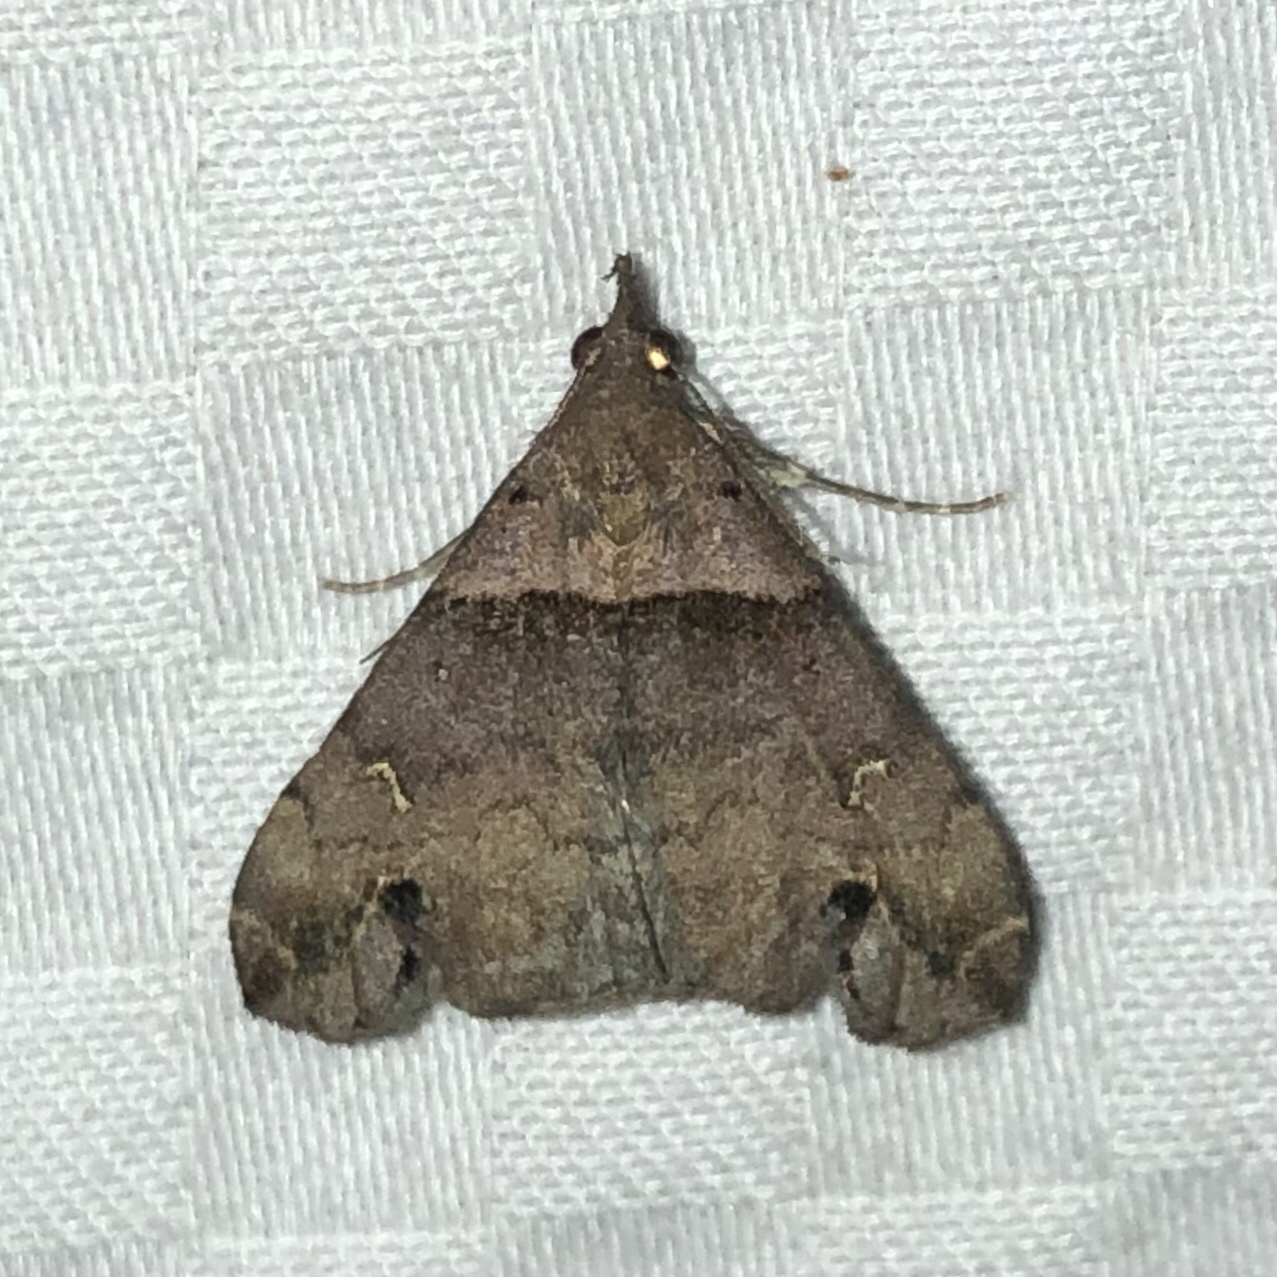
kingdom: Animalia
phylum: Arthropoda
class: Insecta
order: Lepidoptera
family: Erebidae
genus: Lascoria
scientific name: Lascoria ambigualis
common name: Ambiguous moth
